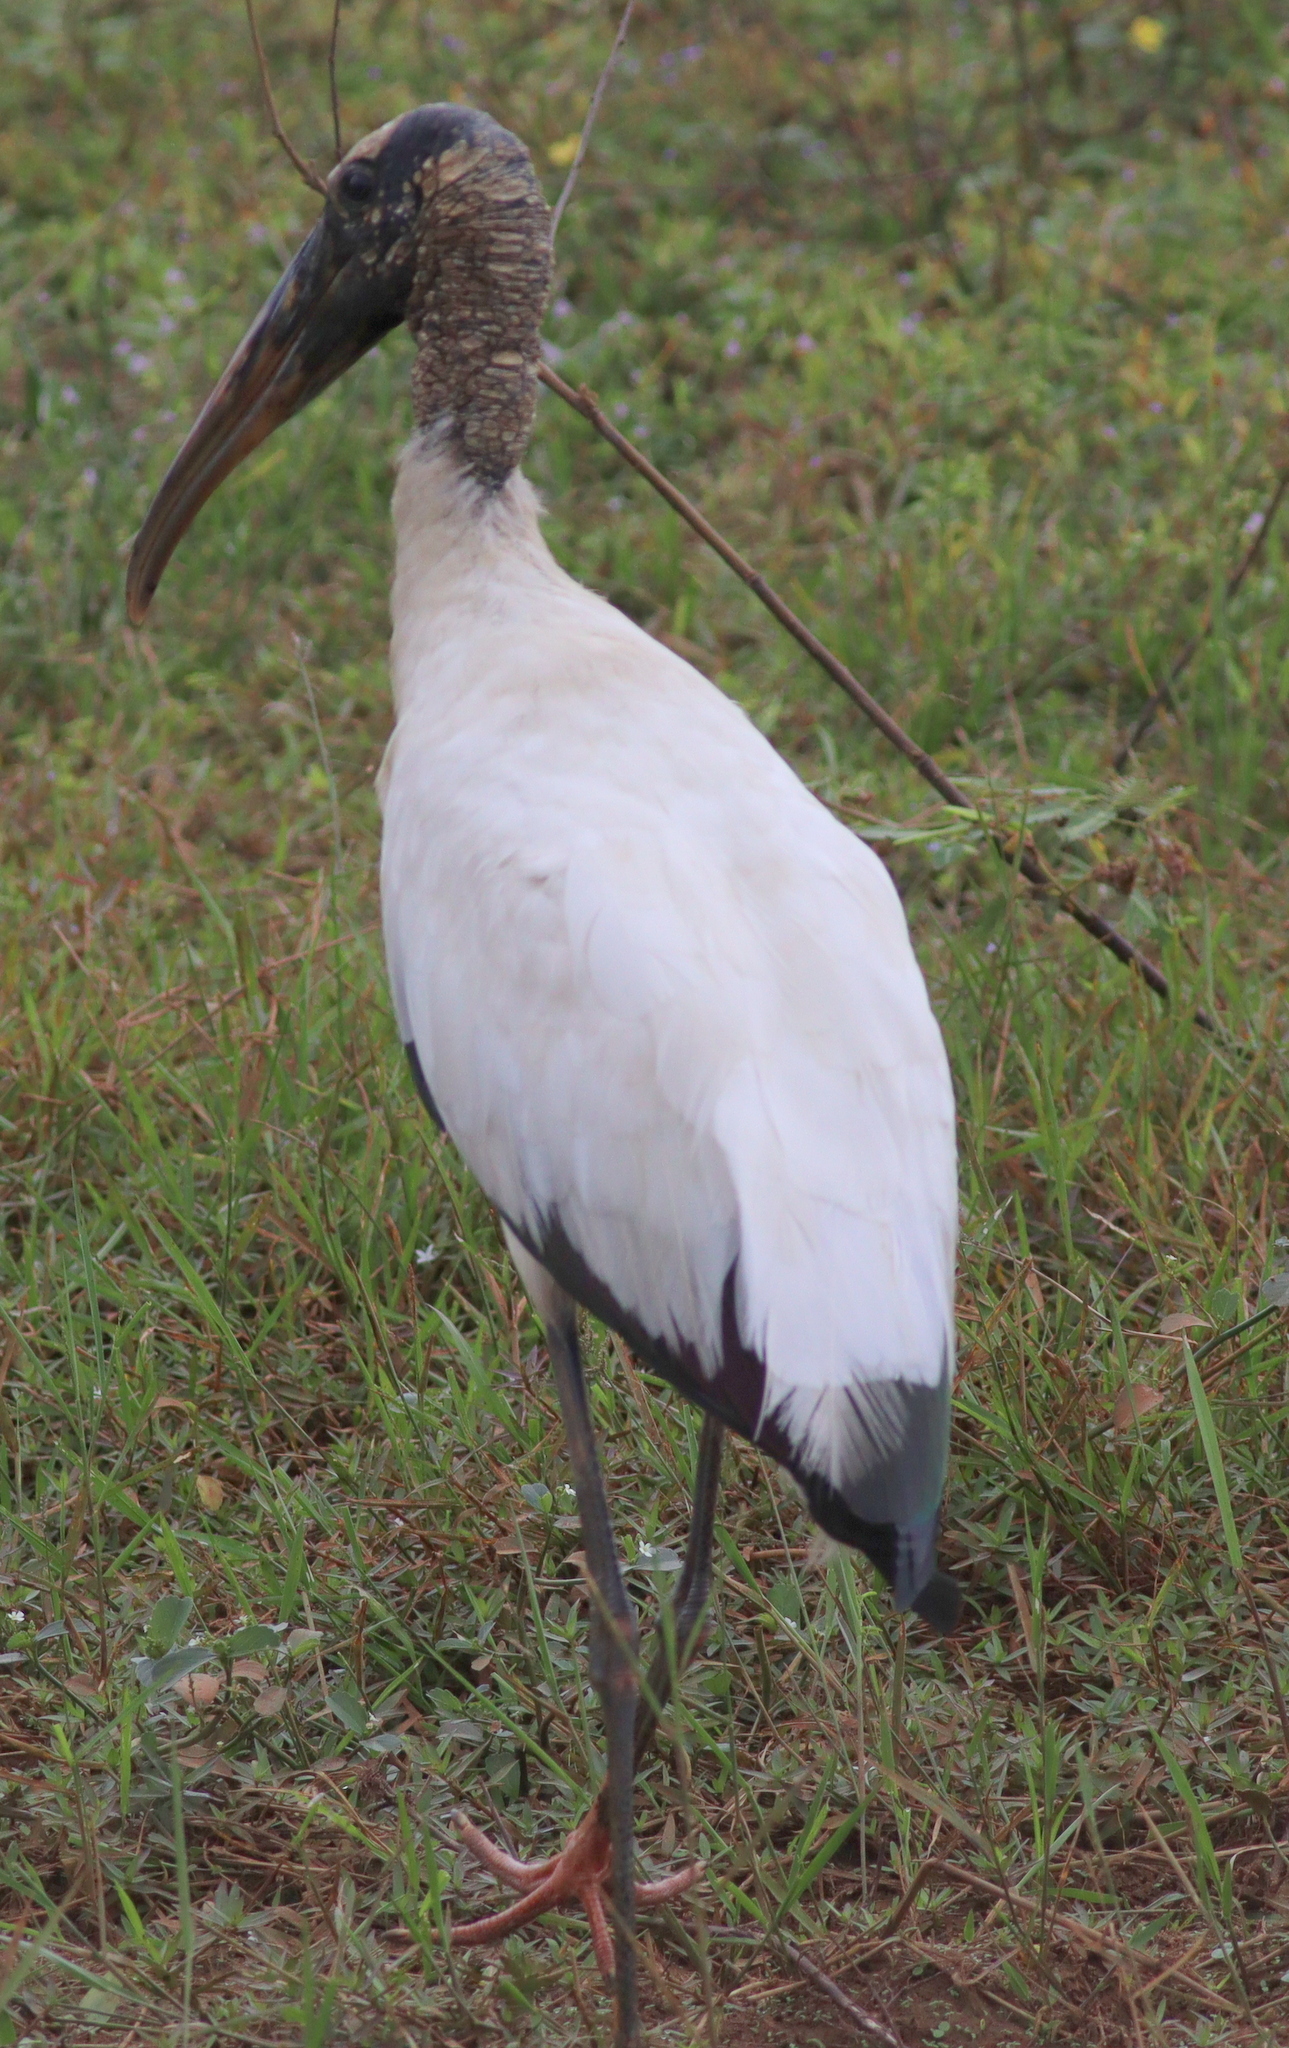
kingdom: Animalia
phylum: Chordata
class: Aves
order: Ciconiiformes
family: Ciconiidae
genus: Mycteria
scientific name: Mycteria americana
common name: Wood stork
